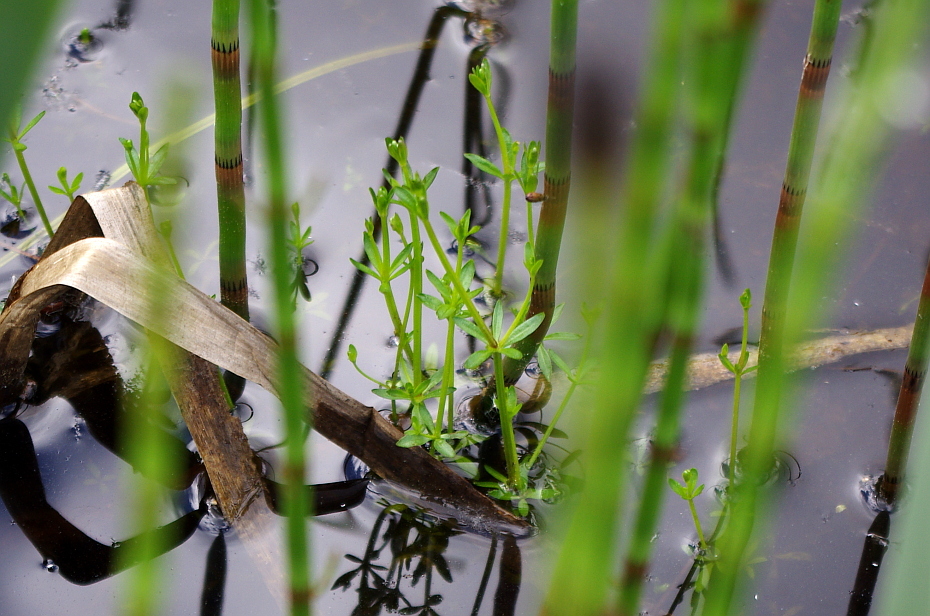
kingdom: Plantae
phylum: Tracheophyta
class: Magnoliopsida
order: Gentianales
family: Rubiaceae
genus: Galium
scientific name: Galium palustre
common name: Common marsh-bedstraw
